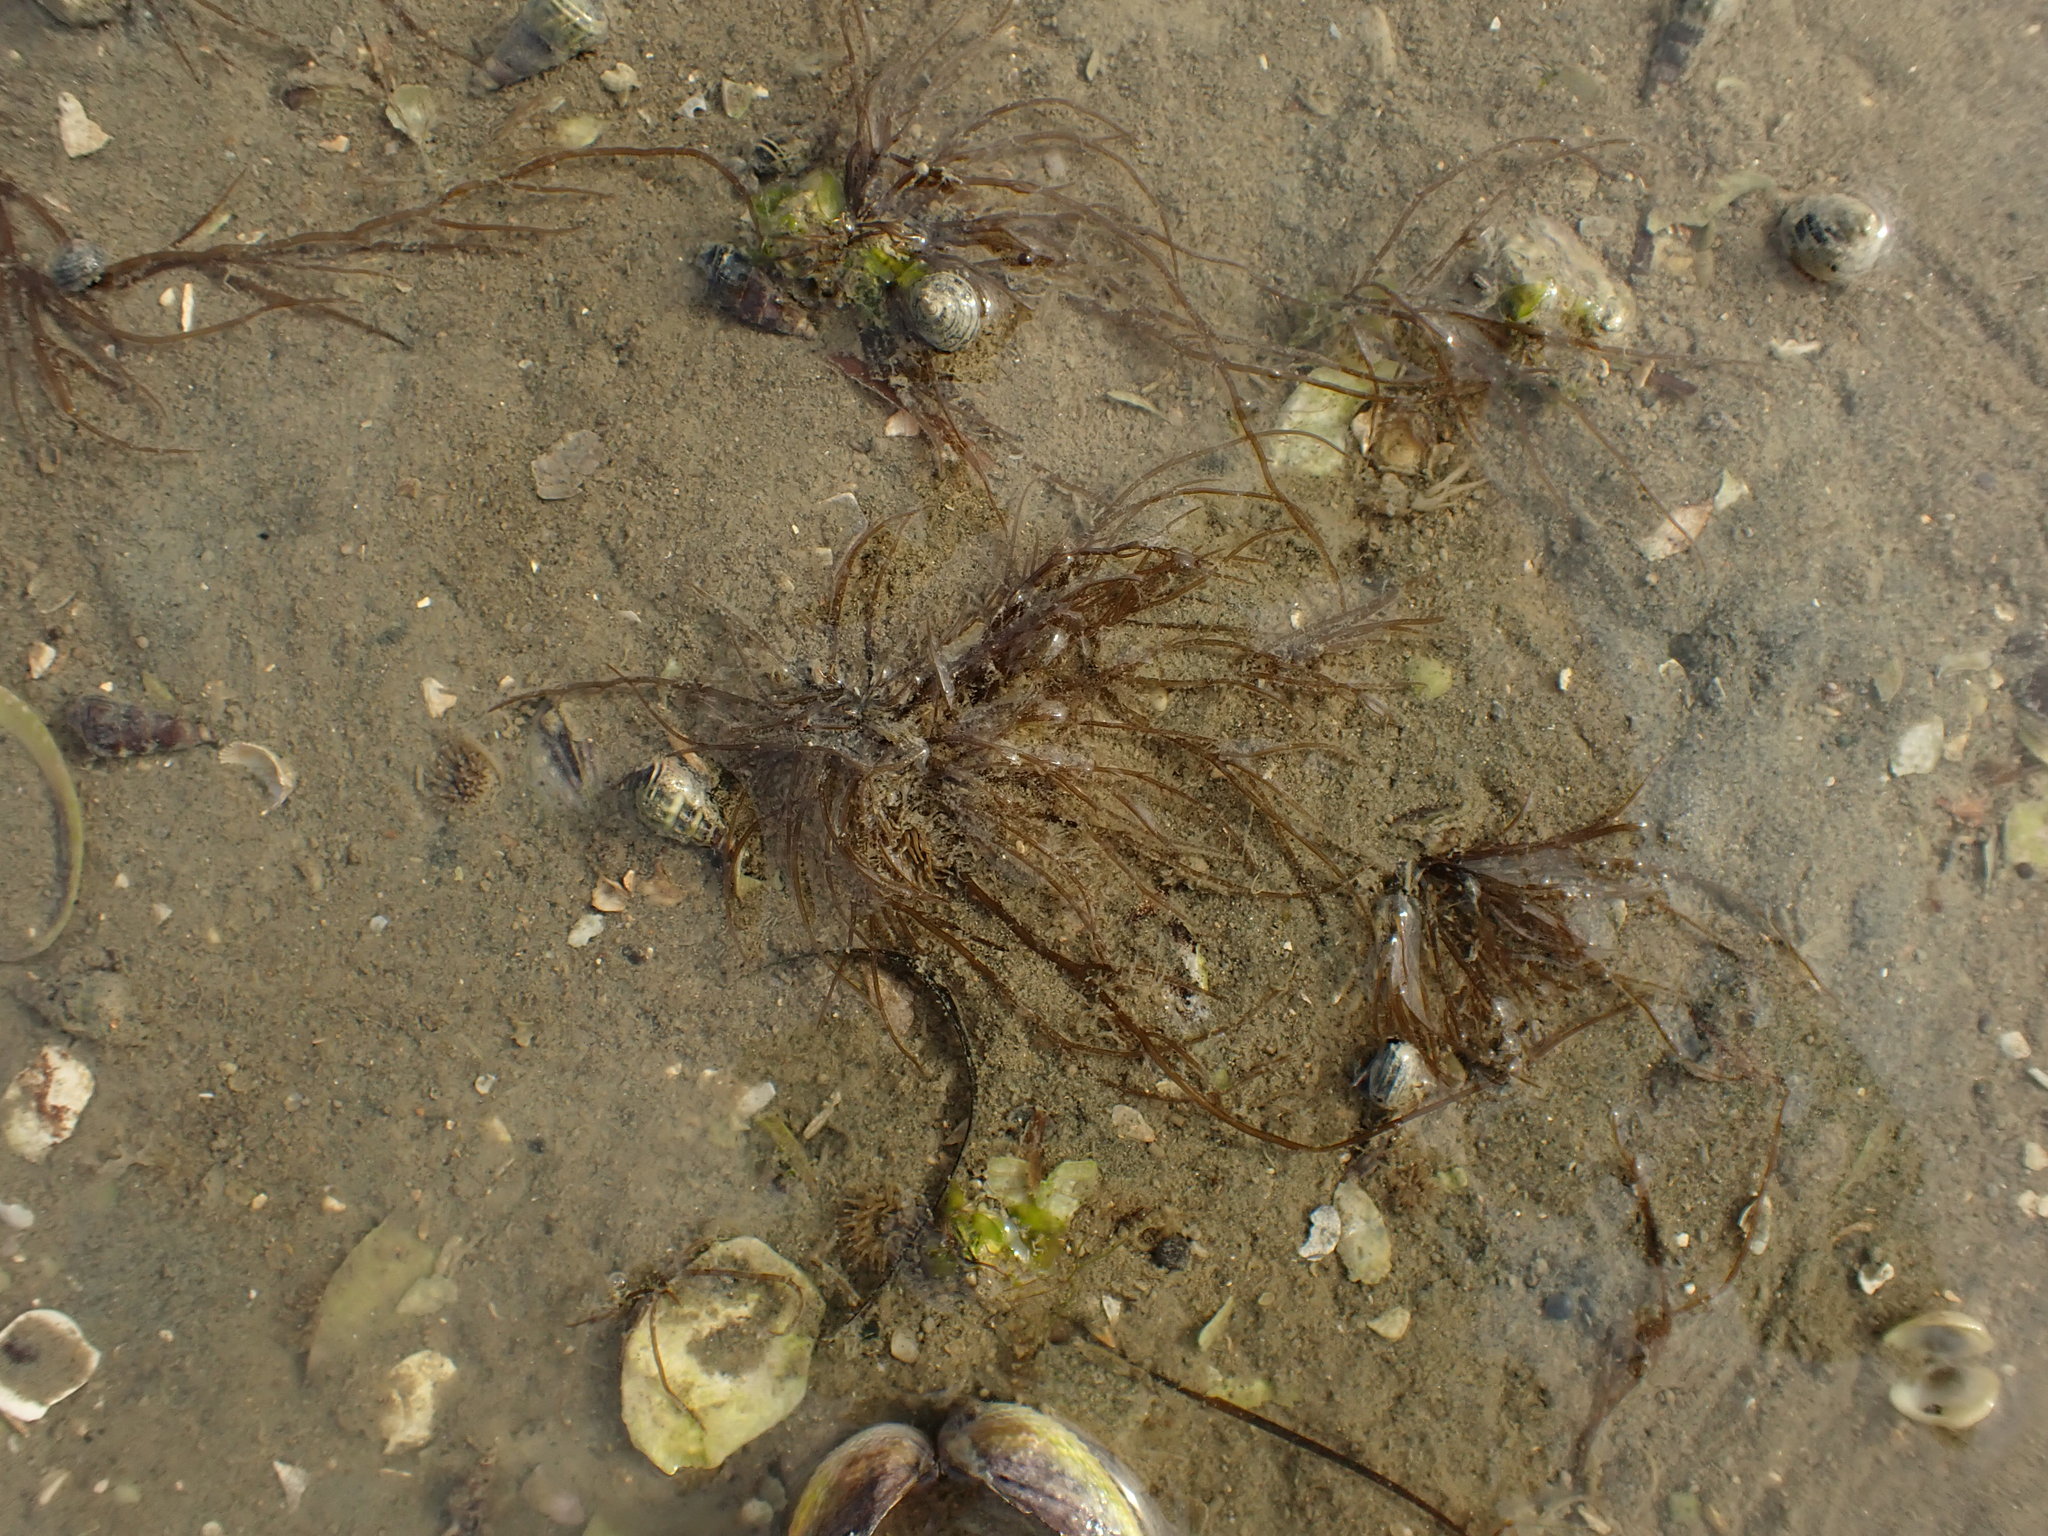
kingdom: Plantae
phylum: Rhodophyta
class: Florideophyceae
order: Gracilariales
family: Gracilariaceae
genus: Gracilaria
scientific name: Gracilaria chilensis
